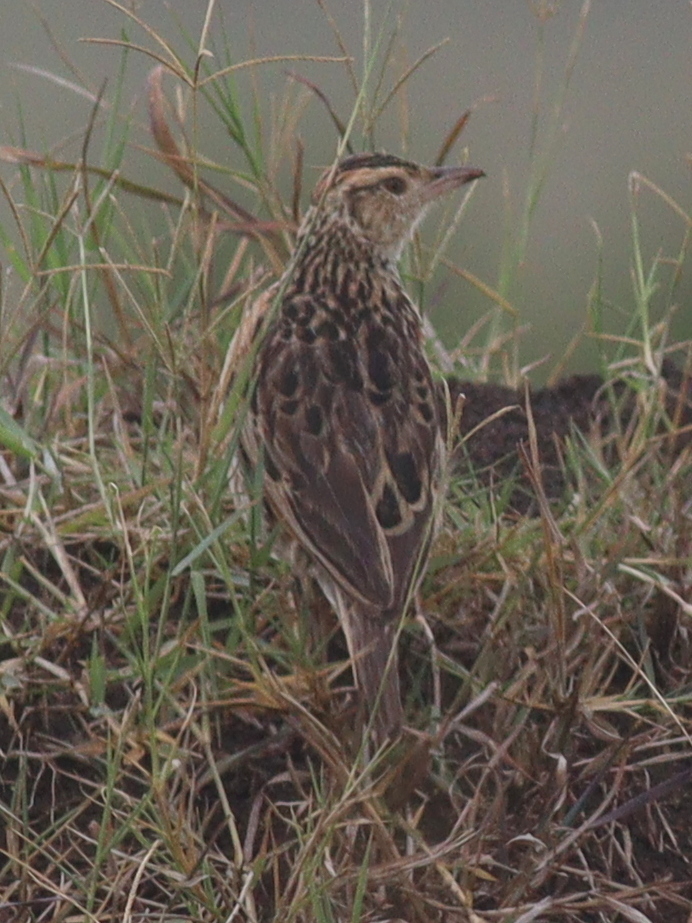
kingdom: Animalia
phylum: Chordata
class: Aves
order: Passeriformes
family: Alaudidae
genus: Mirafra
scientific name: Mirafra africana
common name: Rufous-naped lark
